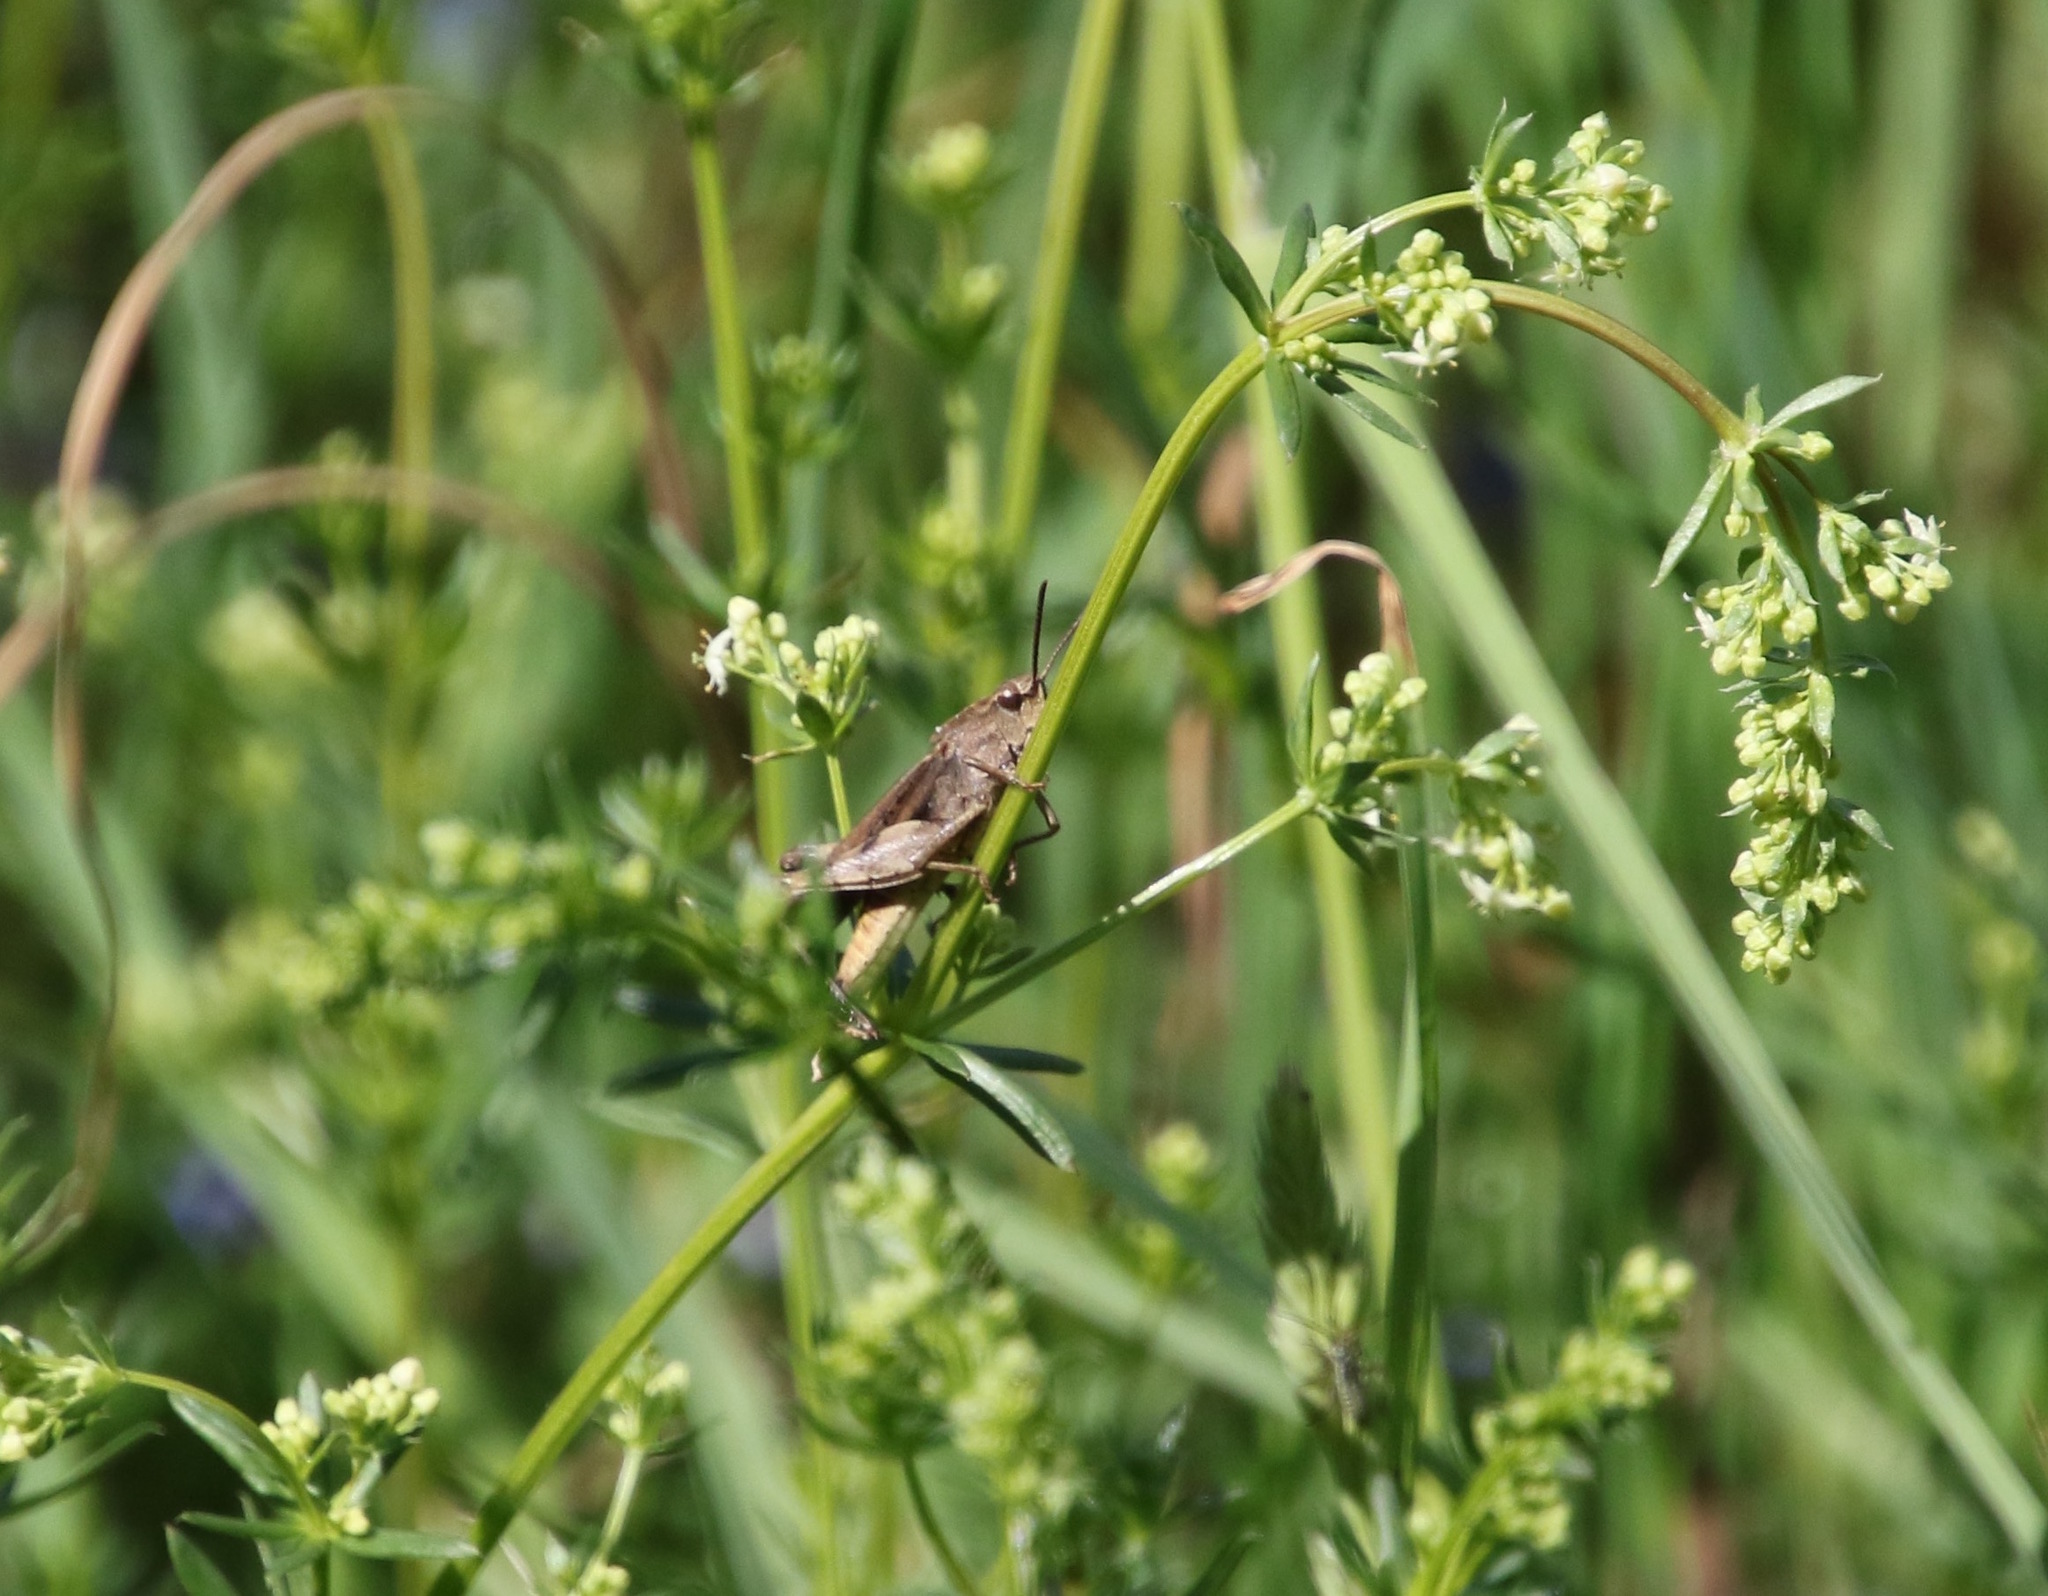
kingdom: Animalia
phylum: Arthropoda
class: Insecta
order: Orthoptera
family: Acrididae
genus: Chortophaga
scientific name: Chortophaga viridifasciata
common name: Green-striped grasshopper
